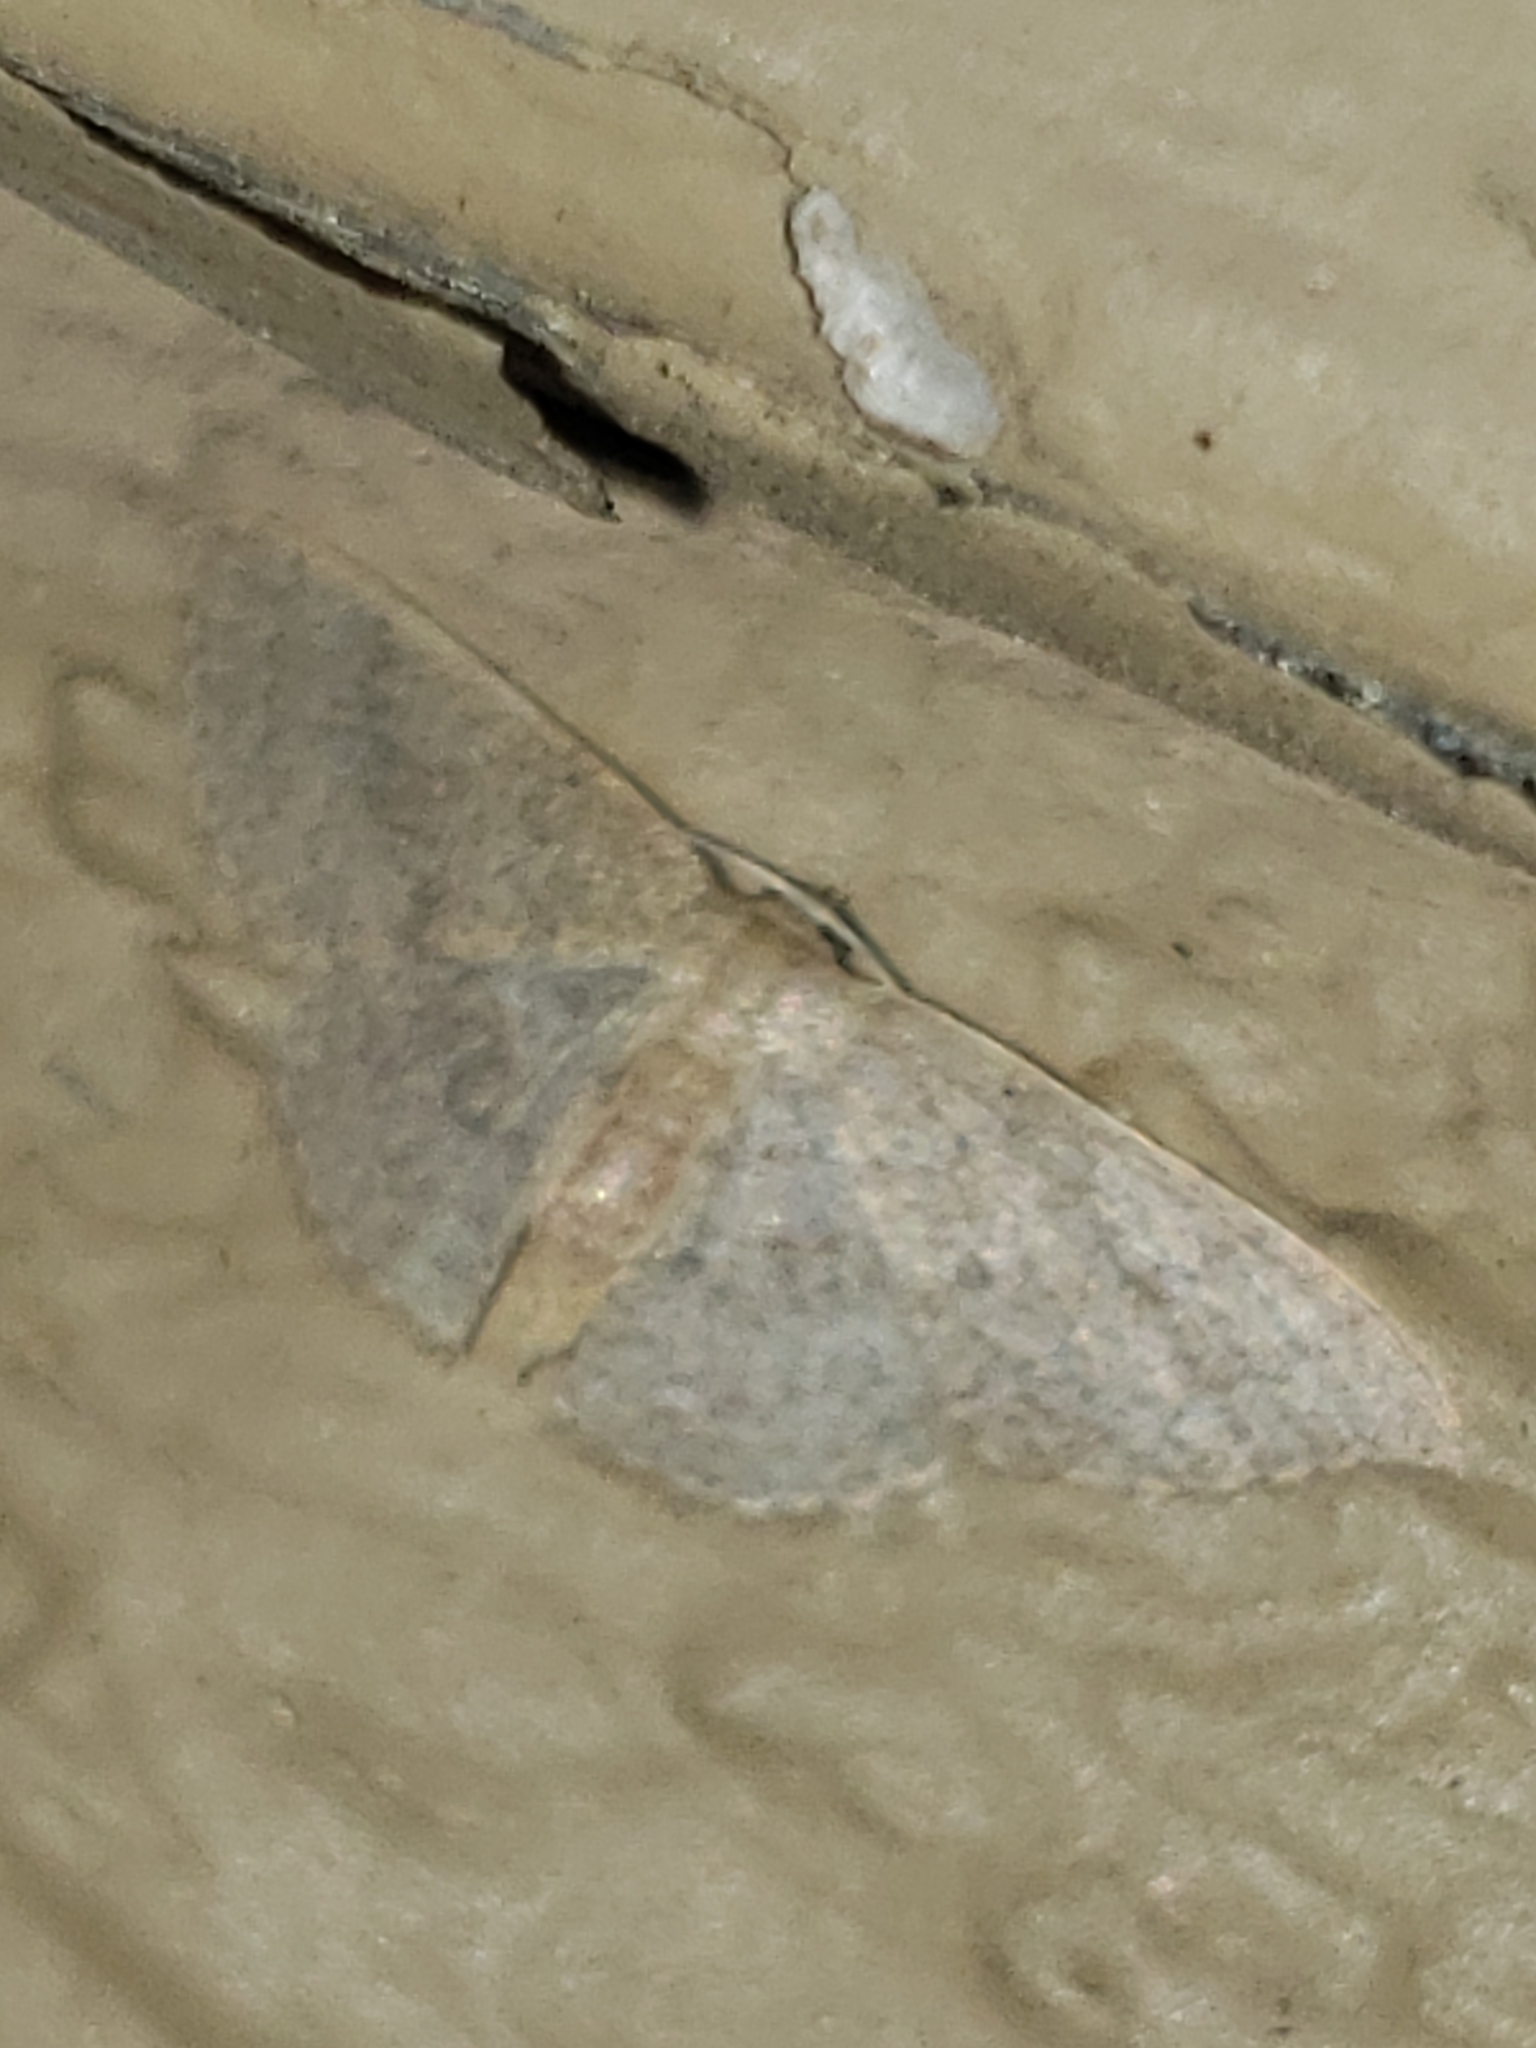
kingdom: Animalia
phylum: Arthropoda
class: Insecta
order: Lepidoptera
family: Geometridae
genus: Pleuroprucha
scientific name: Pleuroprucha insulsaria
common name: Common tan wave
